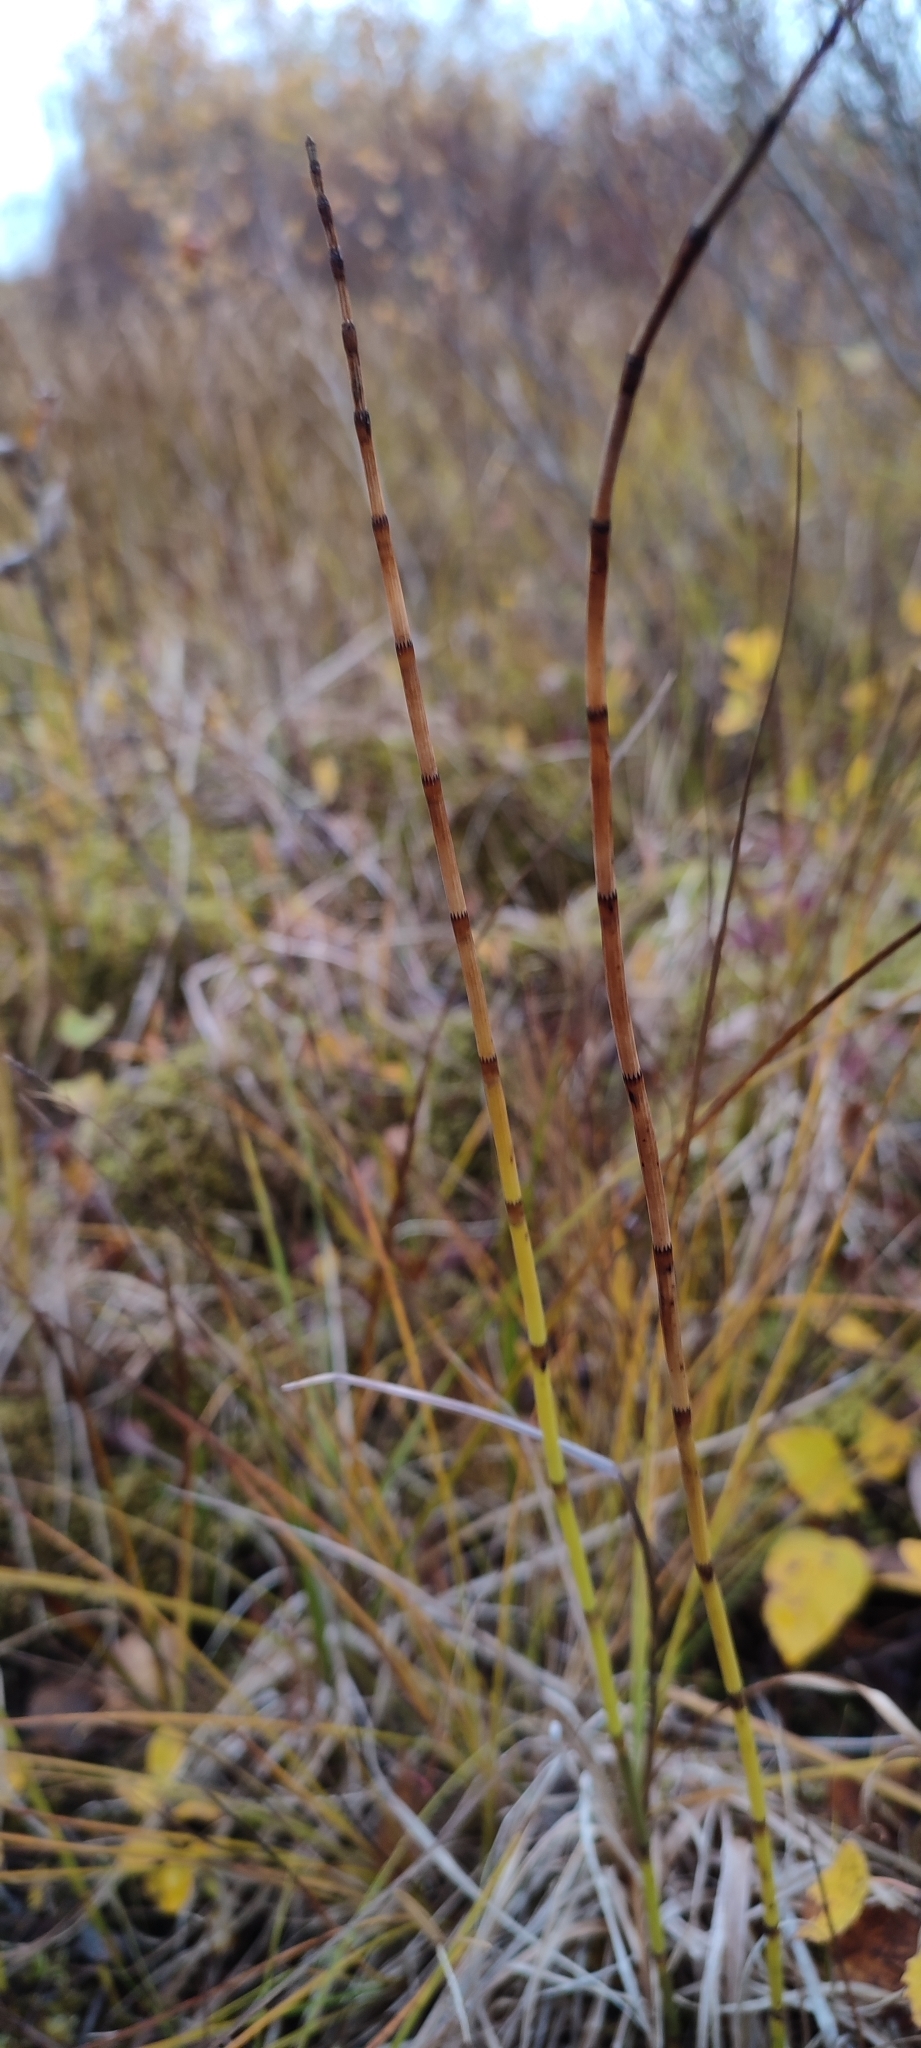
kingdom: Plantae
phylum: Tracheophyta
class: Polypodiopsida
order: Equisetales
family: Equisetaceae
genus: Equisetum
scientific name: Equisetum fluviatile
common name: Water horsetail
